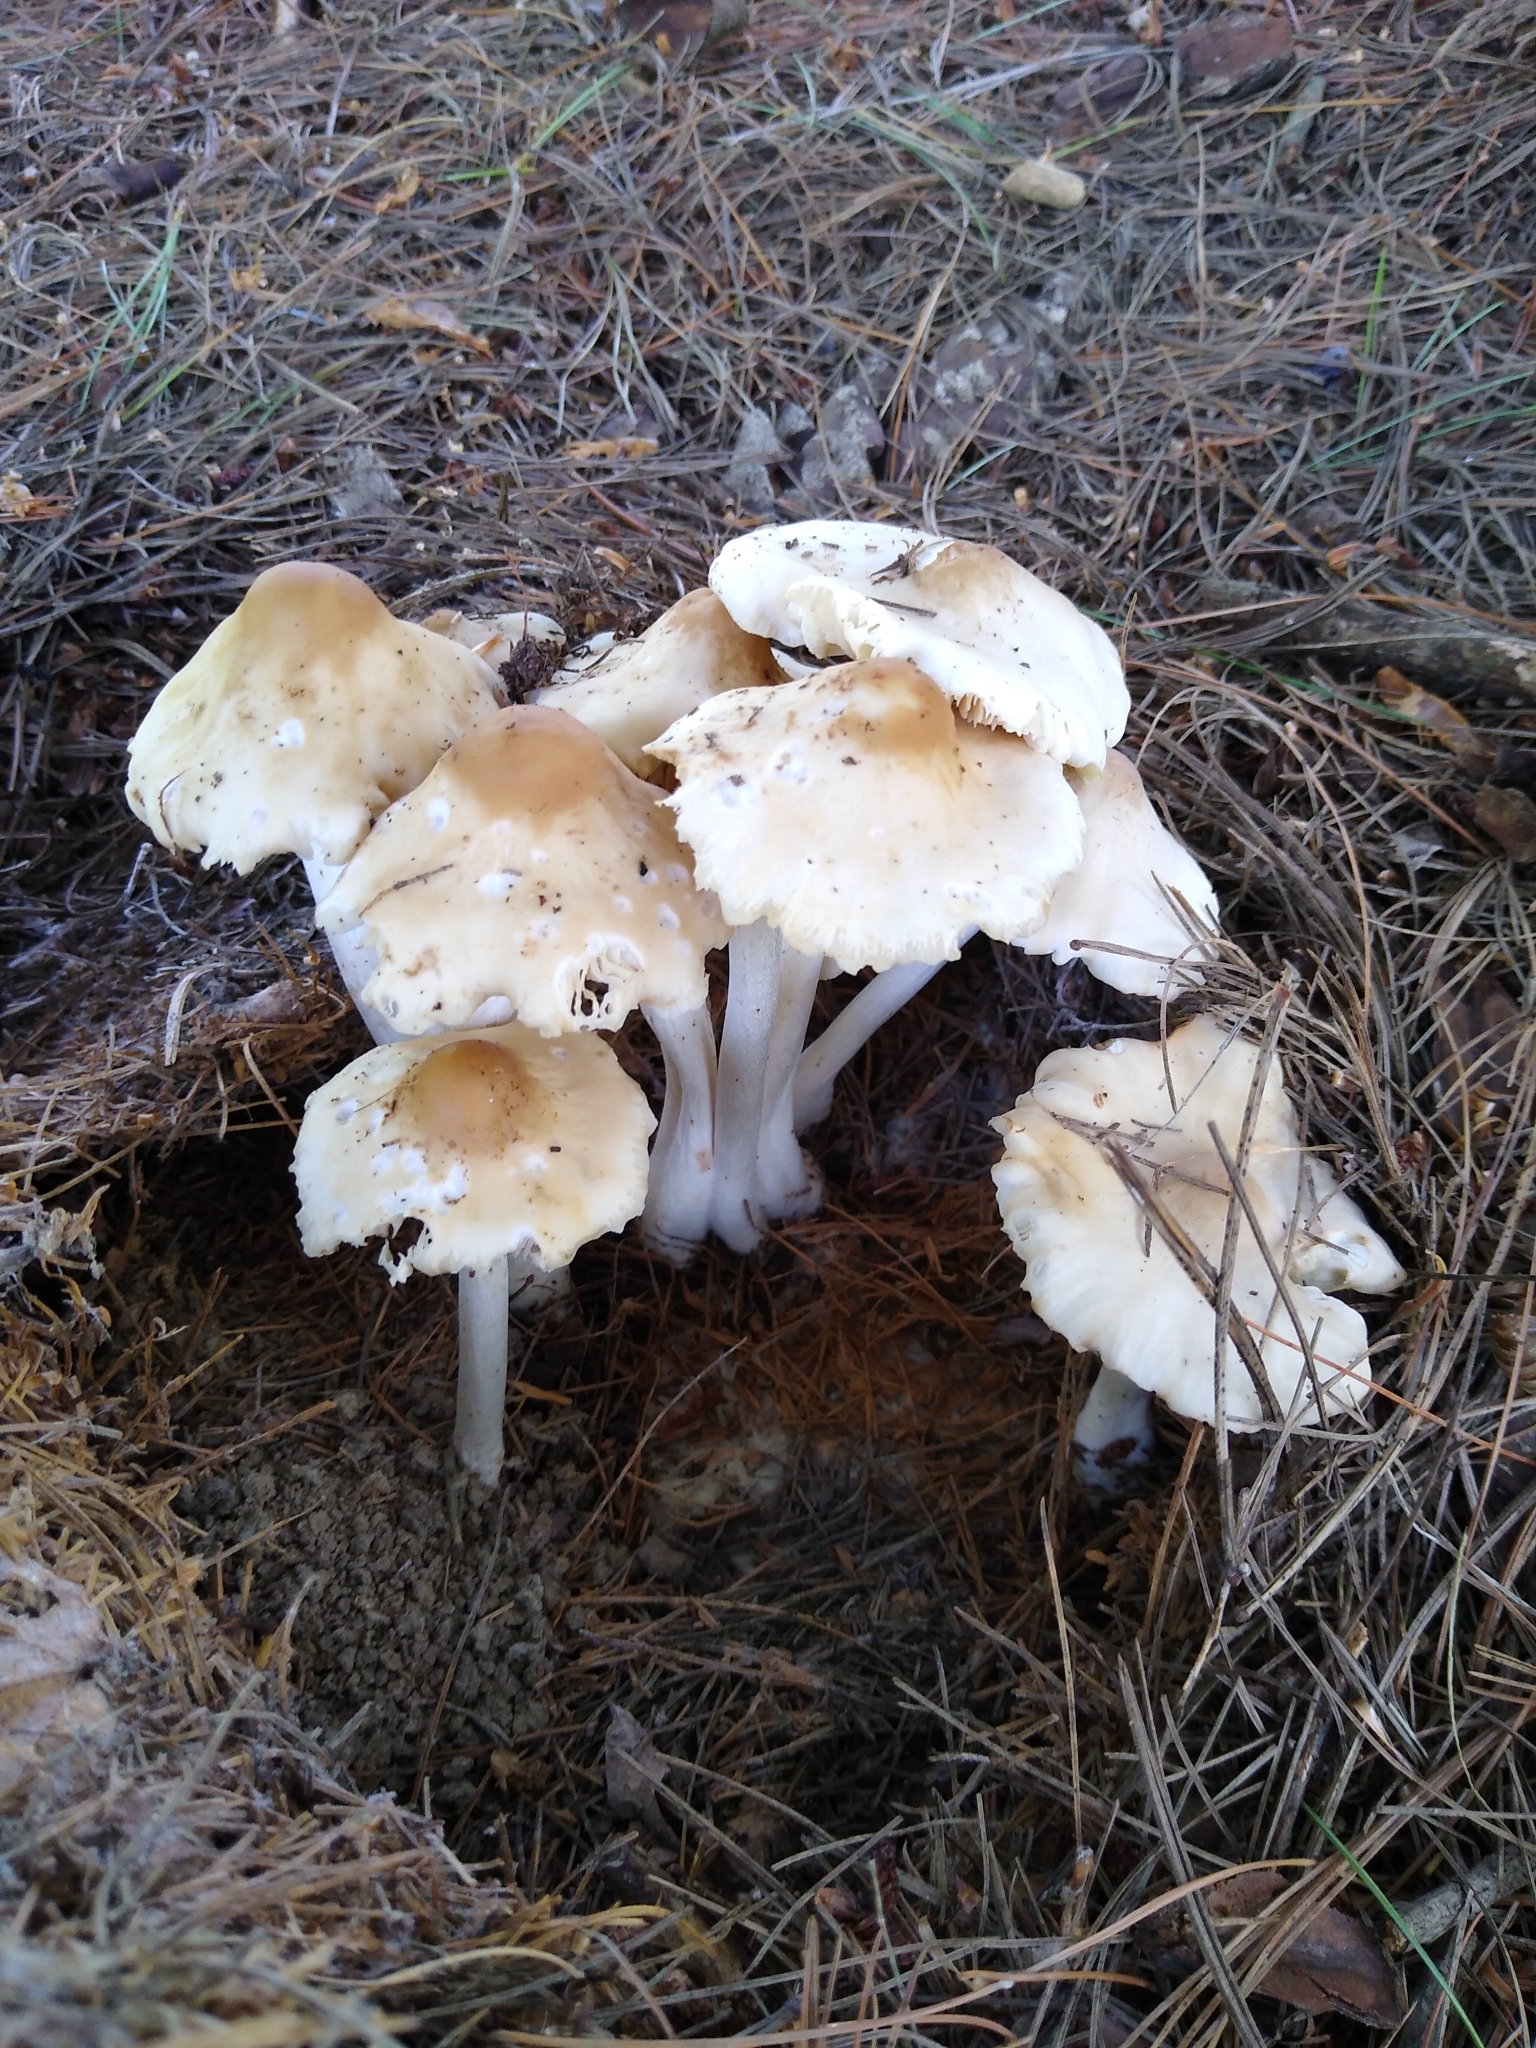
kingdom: Fungi
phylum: Basidiomycota
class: Agaricomycetes
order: Agaricales
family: Marasmiaceae
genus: Marasmius
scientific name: Marasmius nigrodiscus
